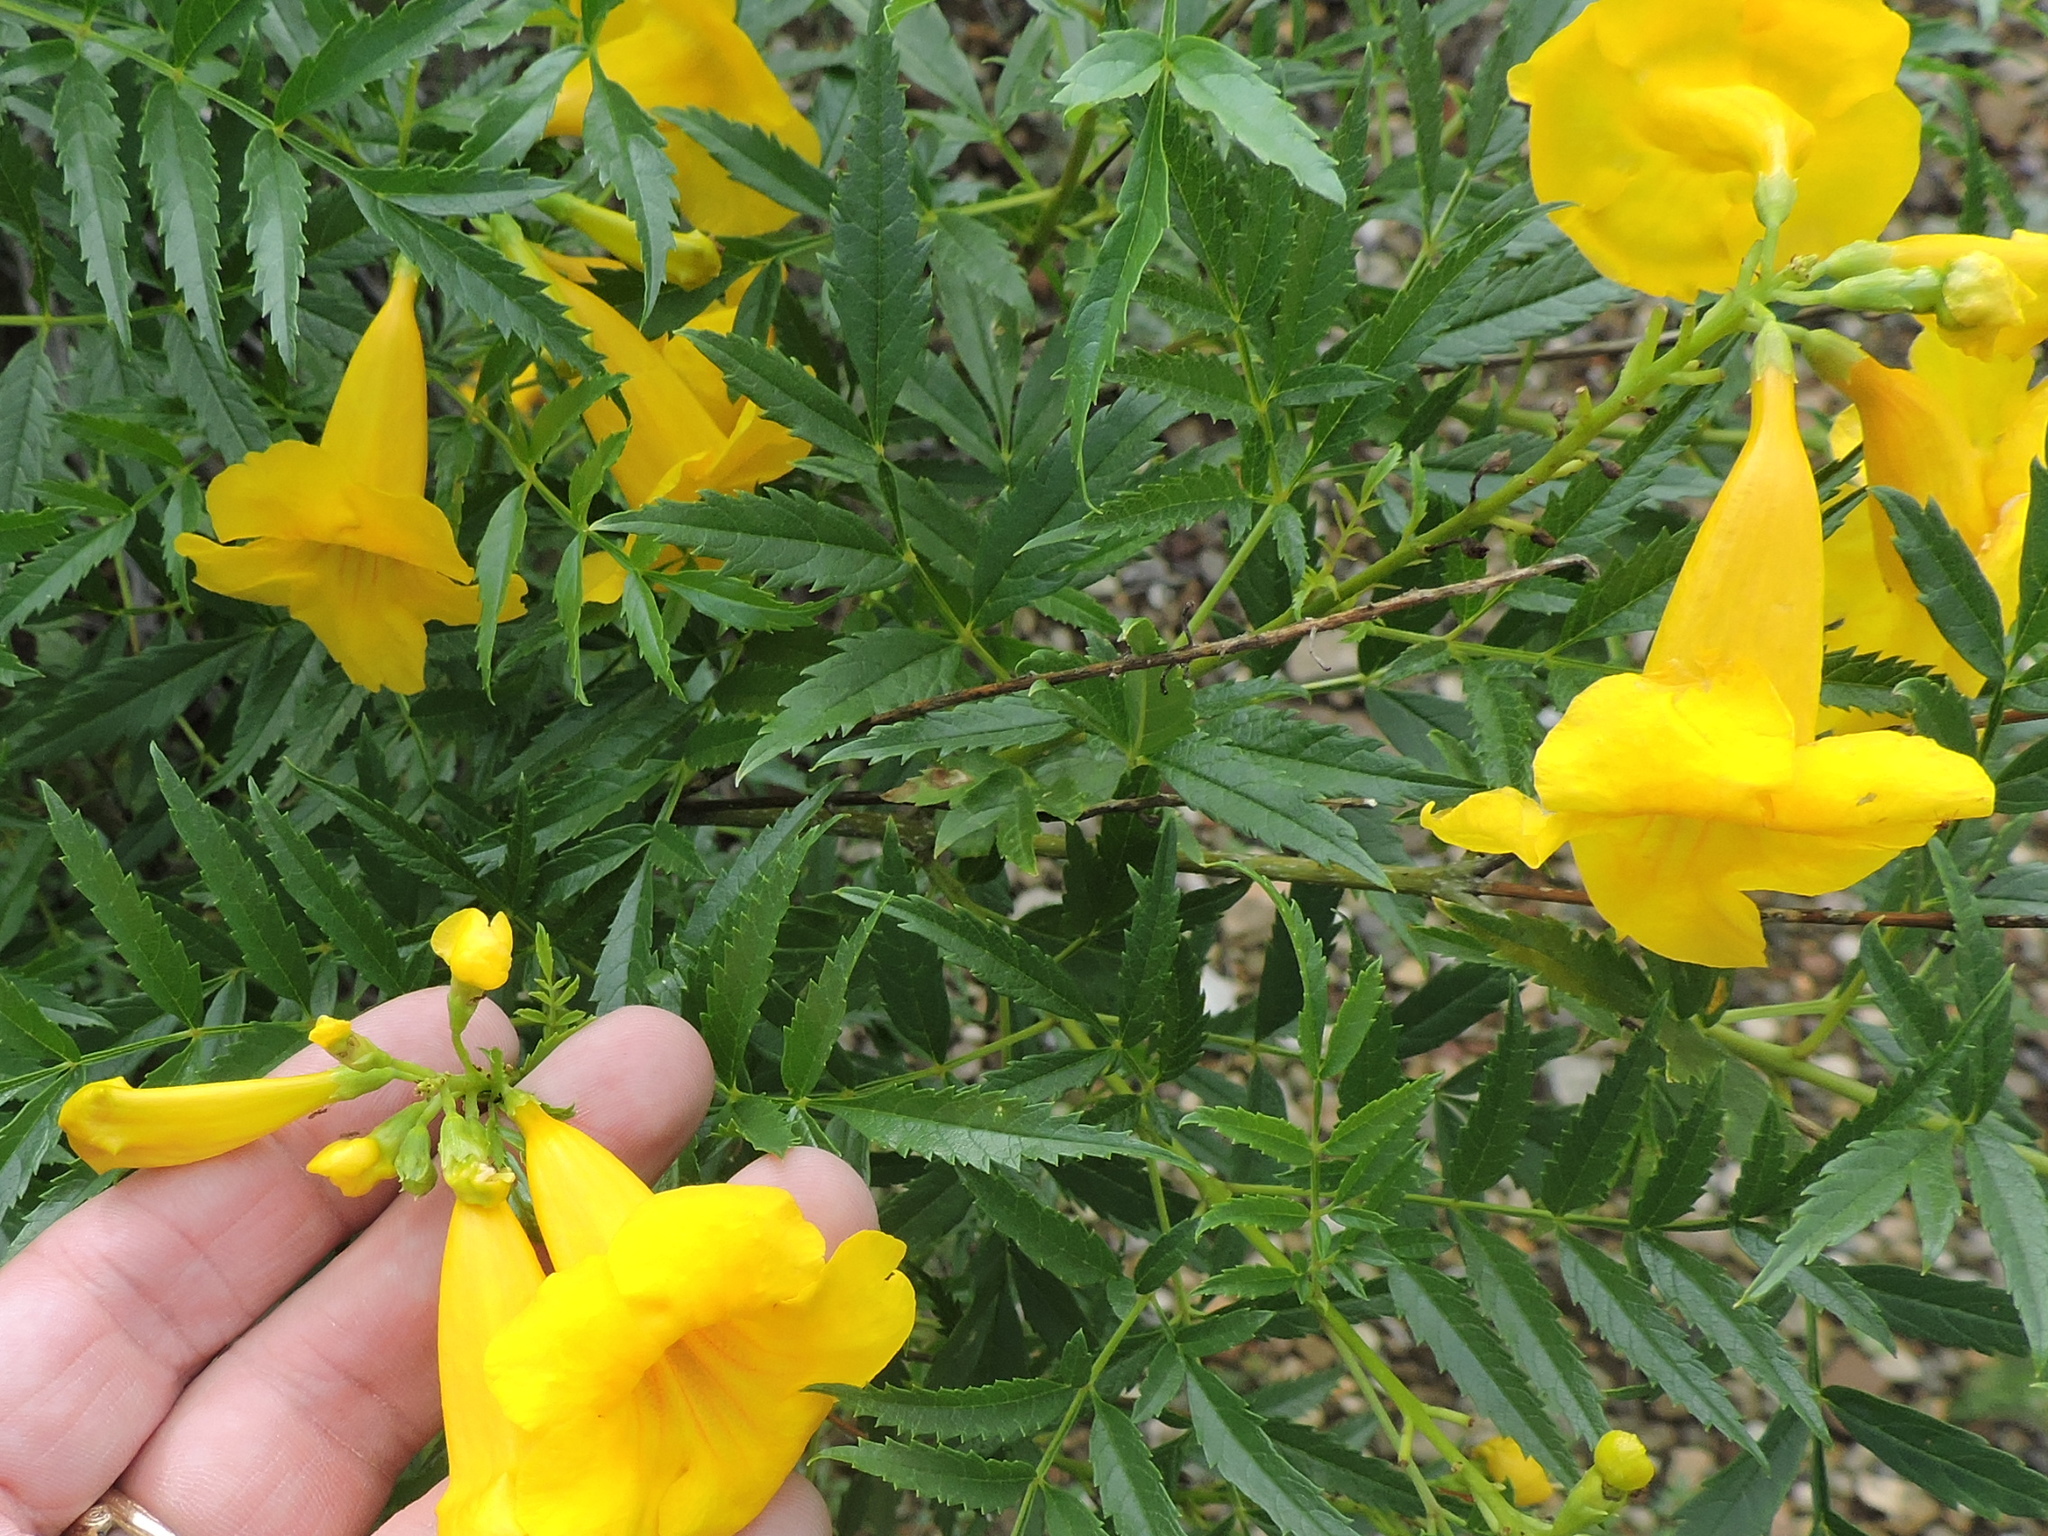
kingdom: Plantae
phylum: Tracheophyta
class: Magnoliopsida
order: Lamiales
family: Bignoniaceae
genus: Tecoma
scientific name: Tecoma stans
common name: Yellow trumpetbush
